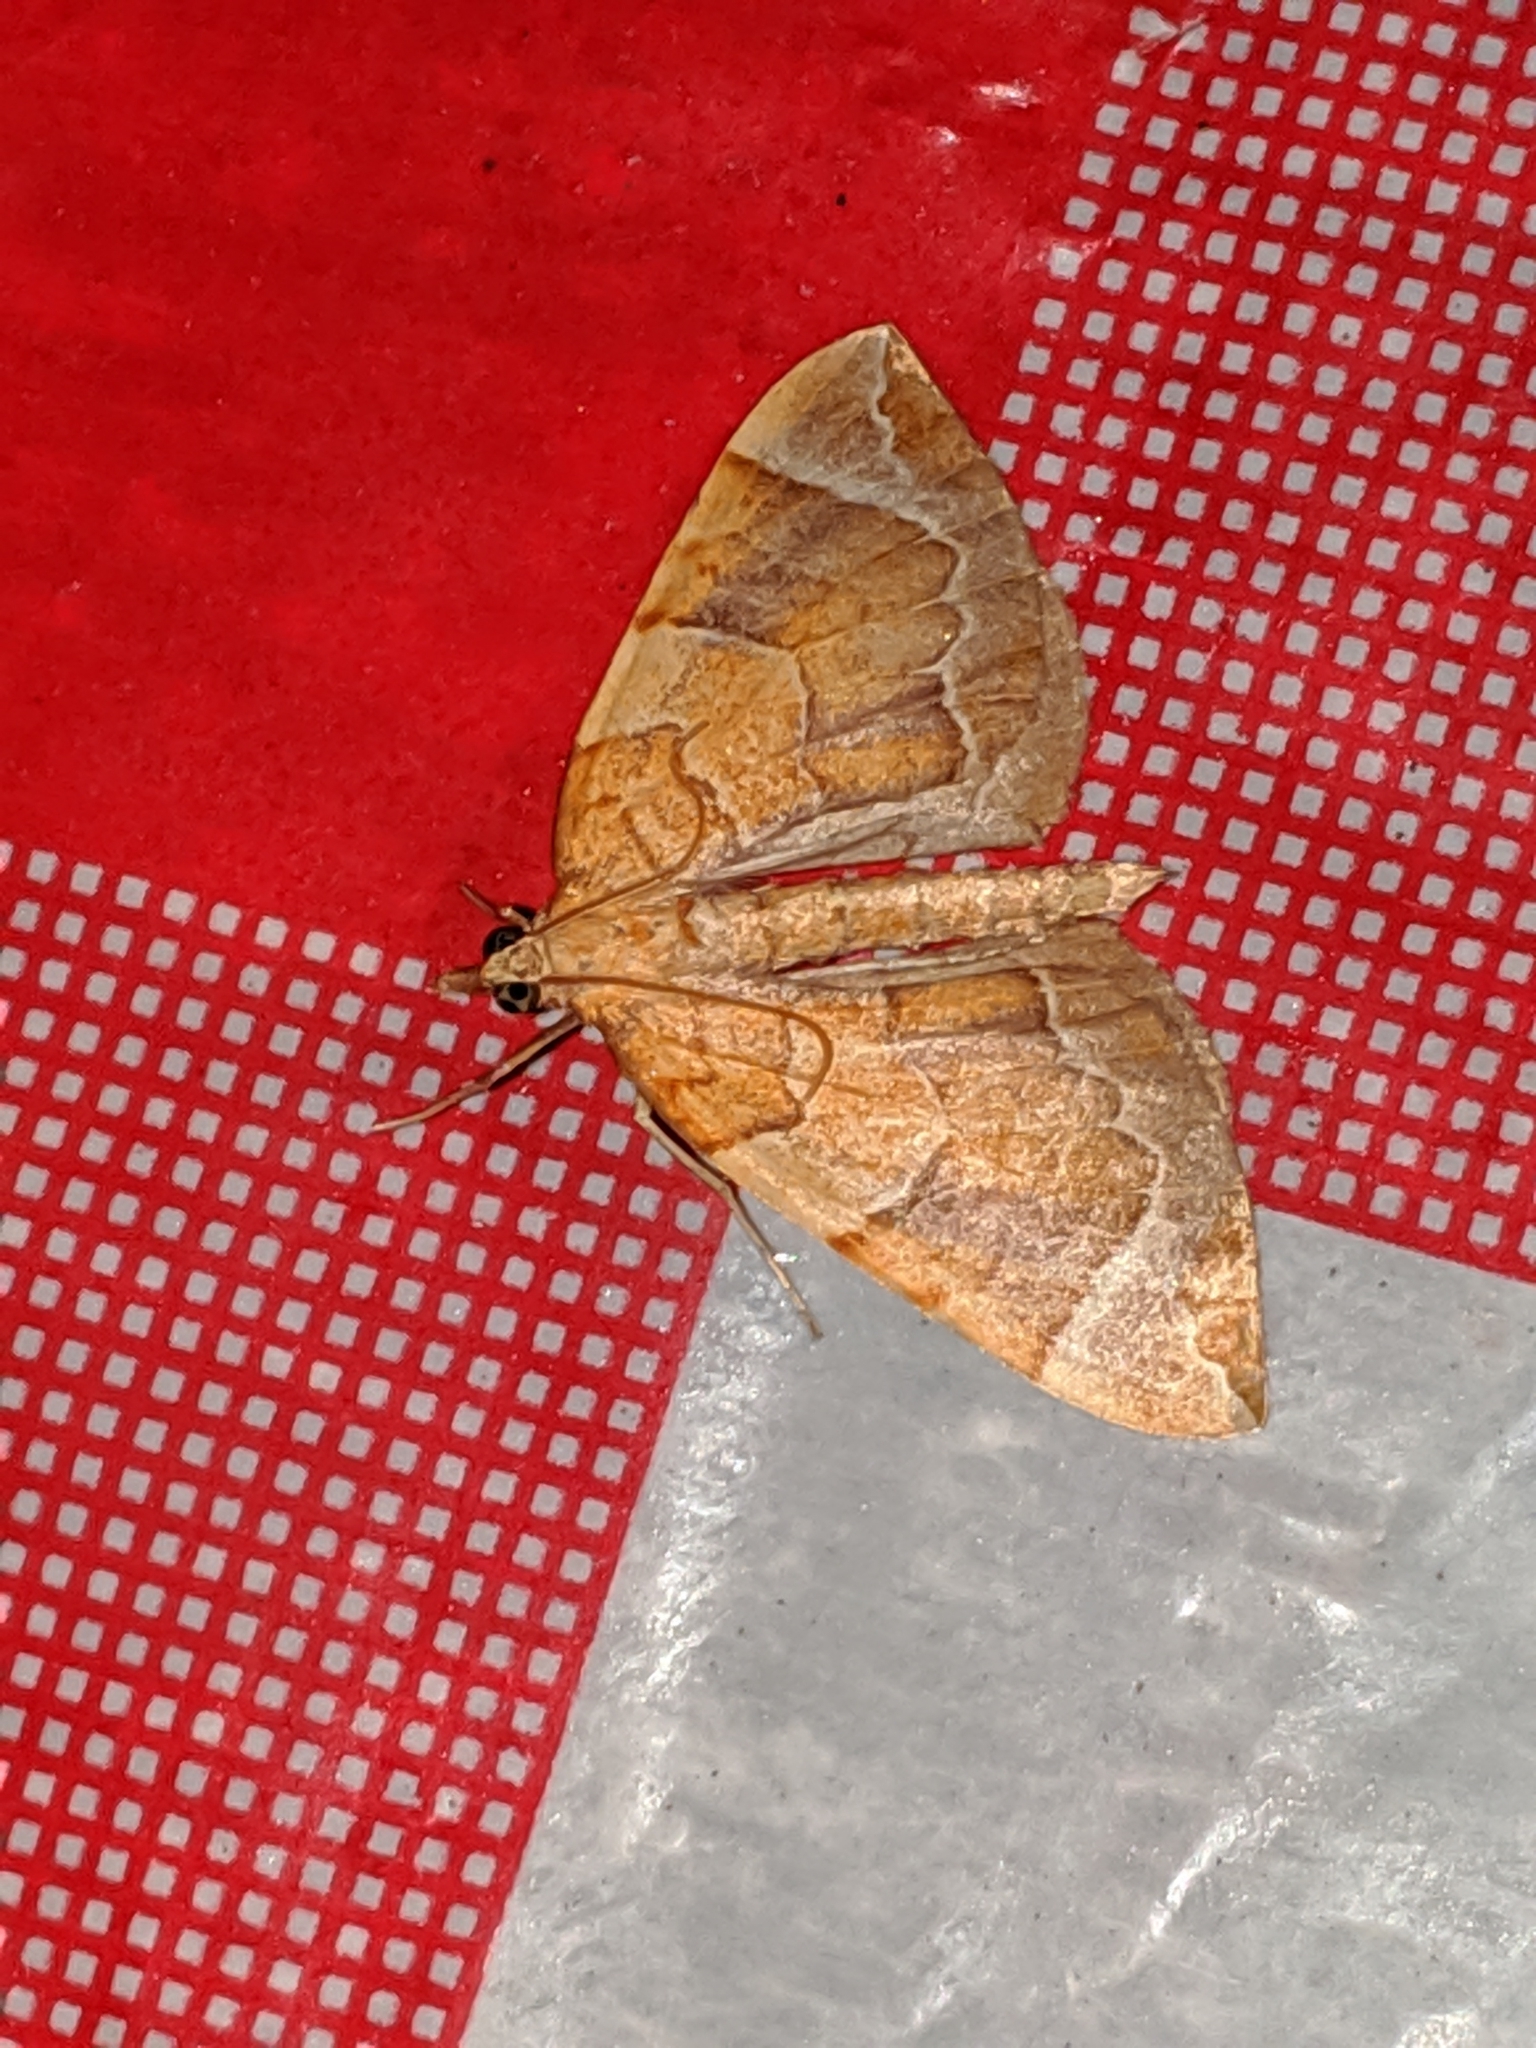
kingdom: Animalia
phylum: Arthropoda
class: Insecta
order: Lepidoptera
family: Geometridae
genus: Eulithis
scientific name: Eulithis testata
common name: Chevron
